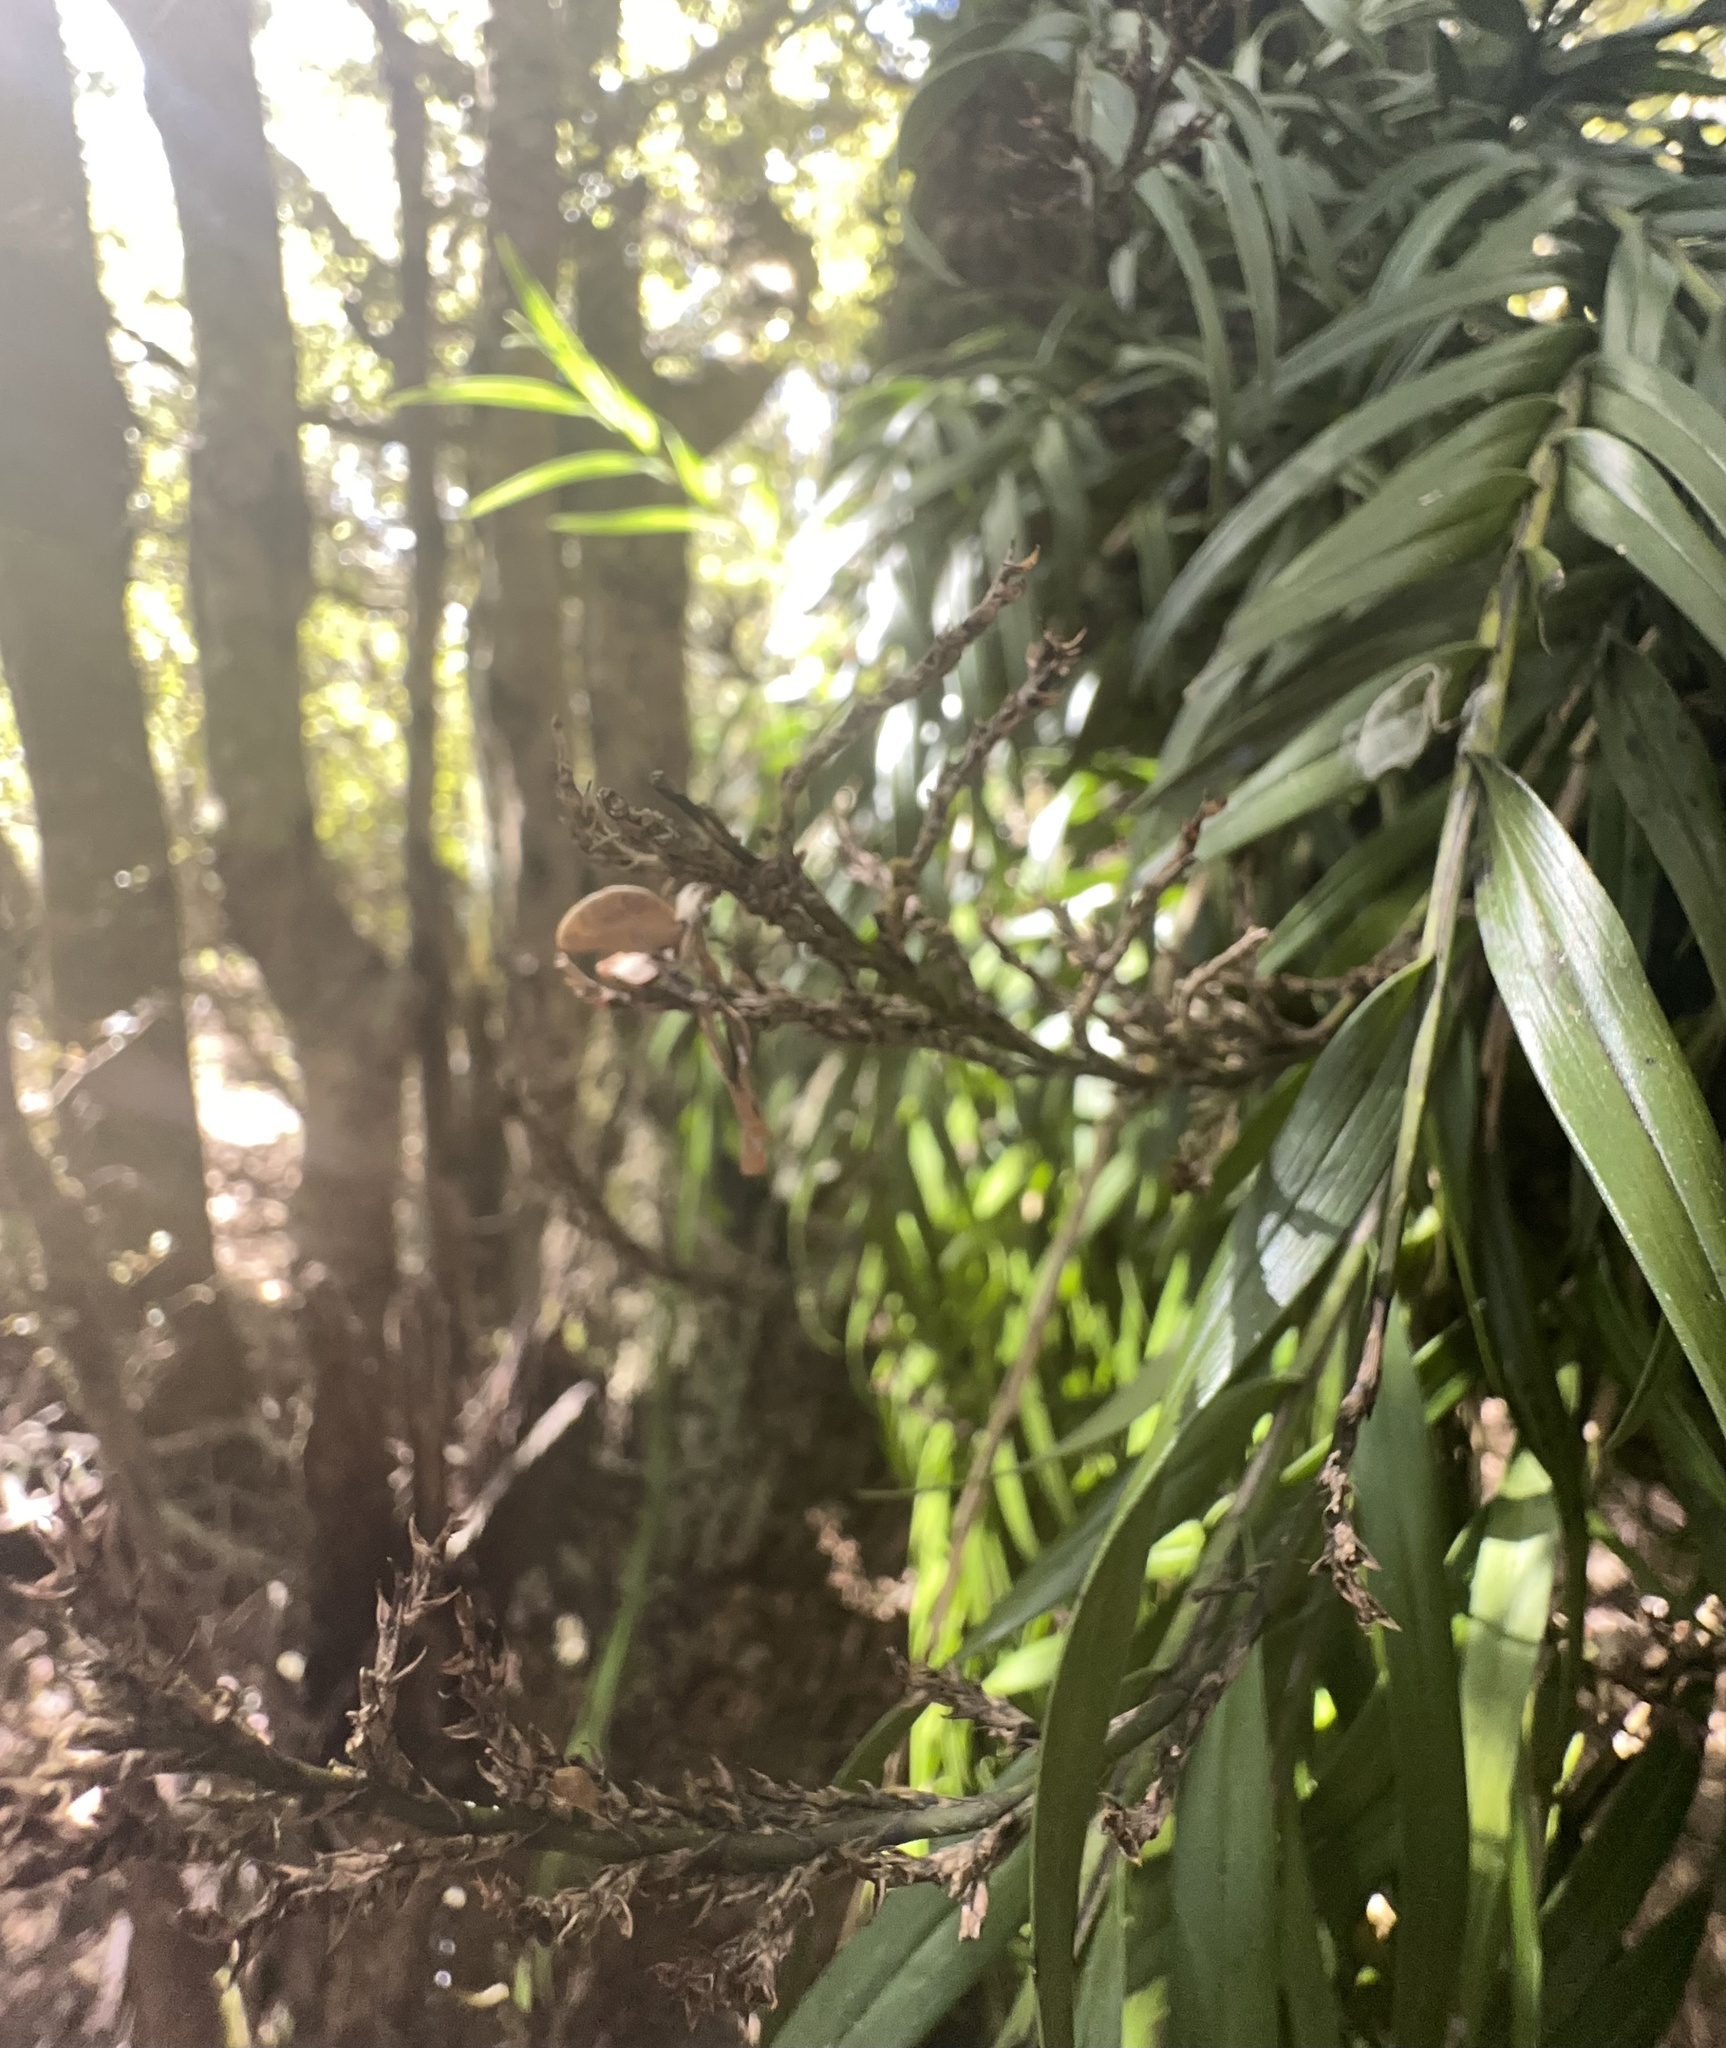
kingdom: Plantae
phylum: Tracheophyta
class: Liliopsida
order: Asparagales
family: Orchidaceae
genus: Earina
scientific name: Earina autumnalis
